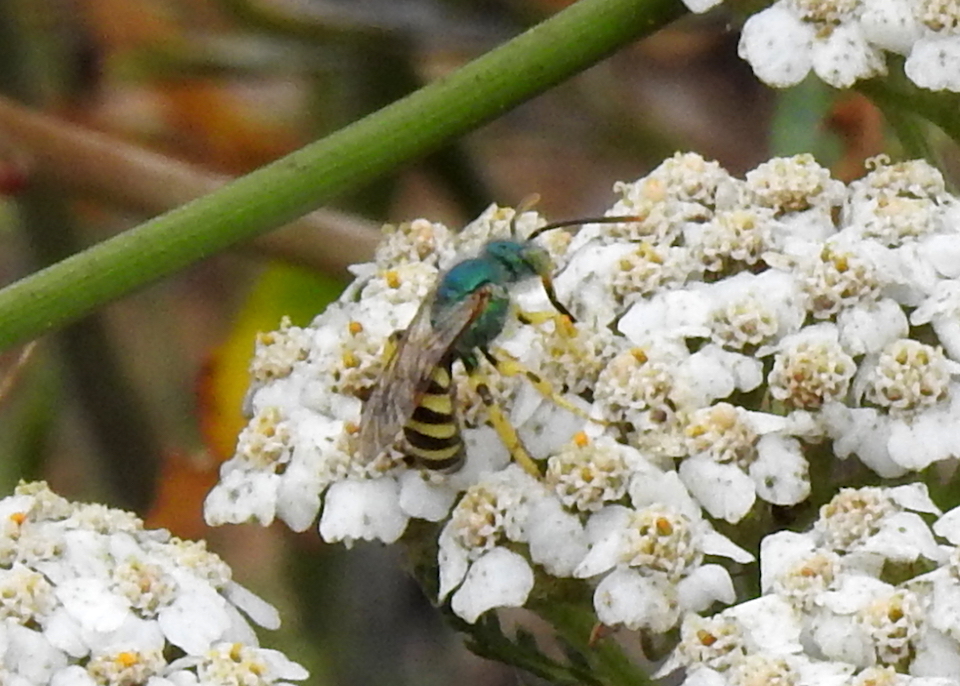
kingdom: Animalia
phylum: Arthropoda
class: Insecta
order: Hymenoptera
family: Halictidae
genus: Agapostemon
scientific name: Agapostemon texanus
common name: Texas striped sweat bee
